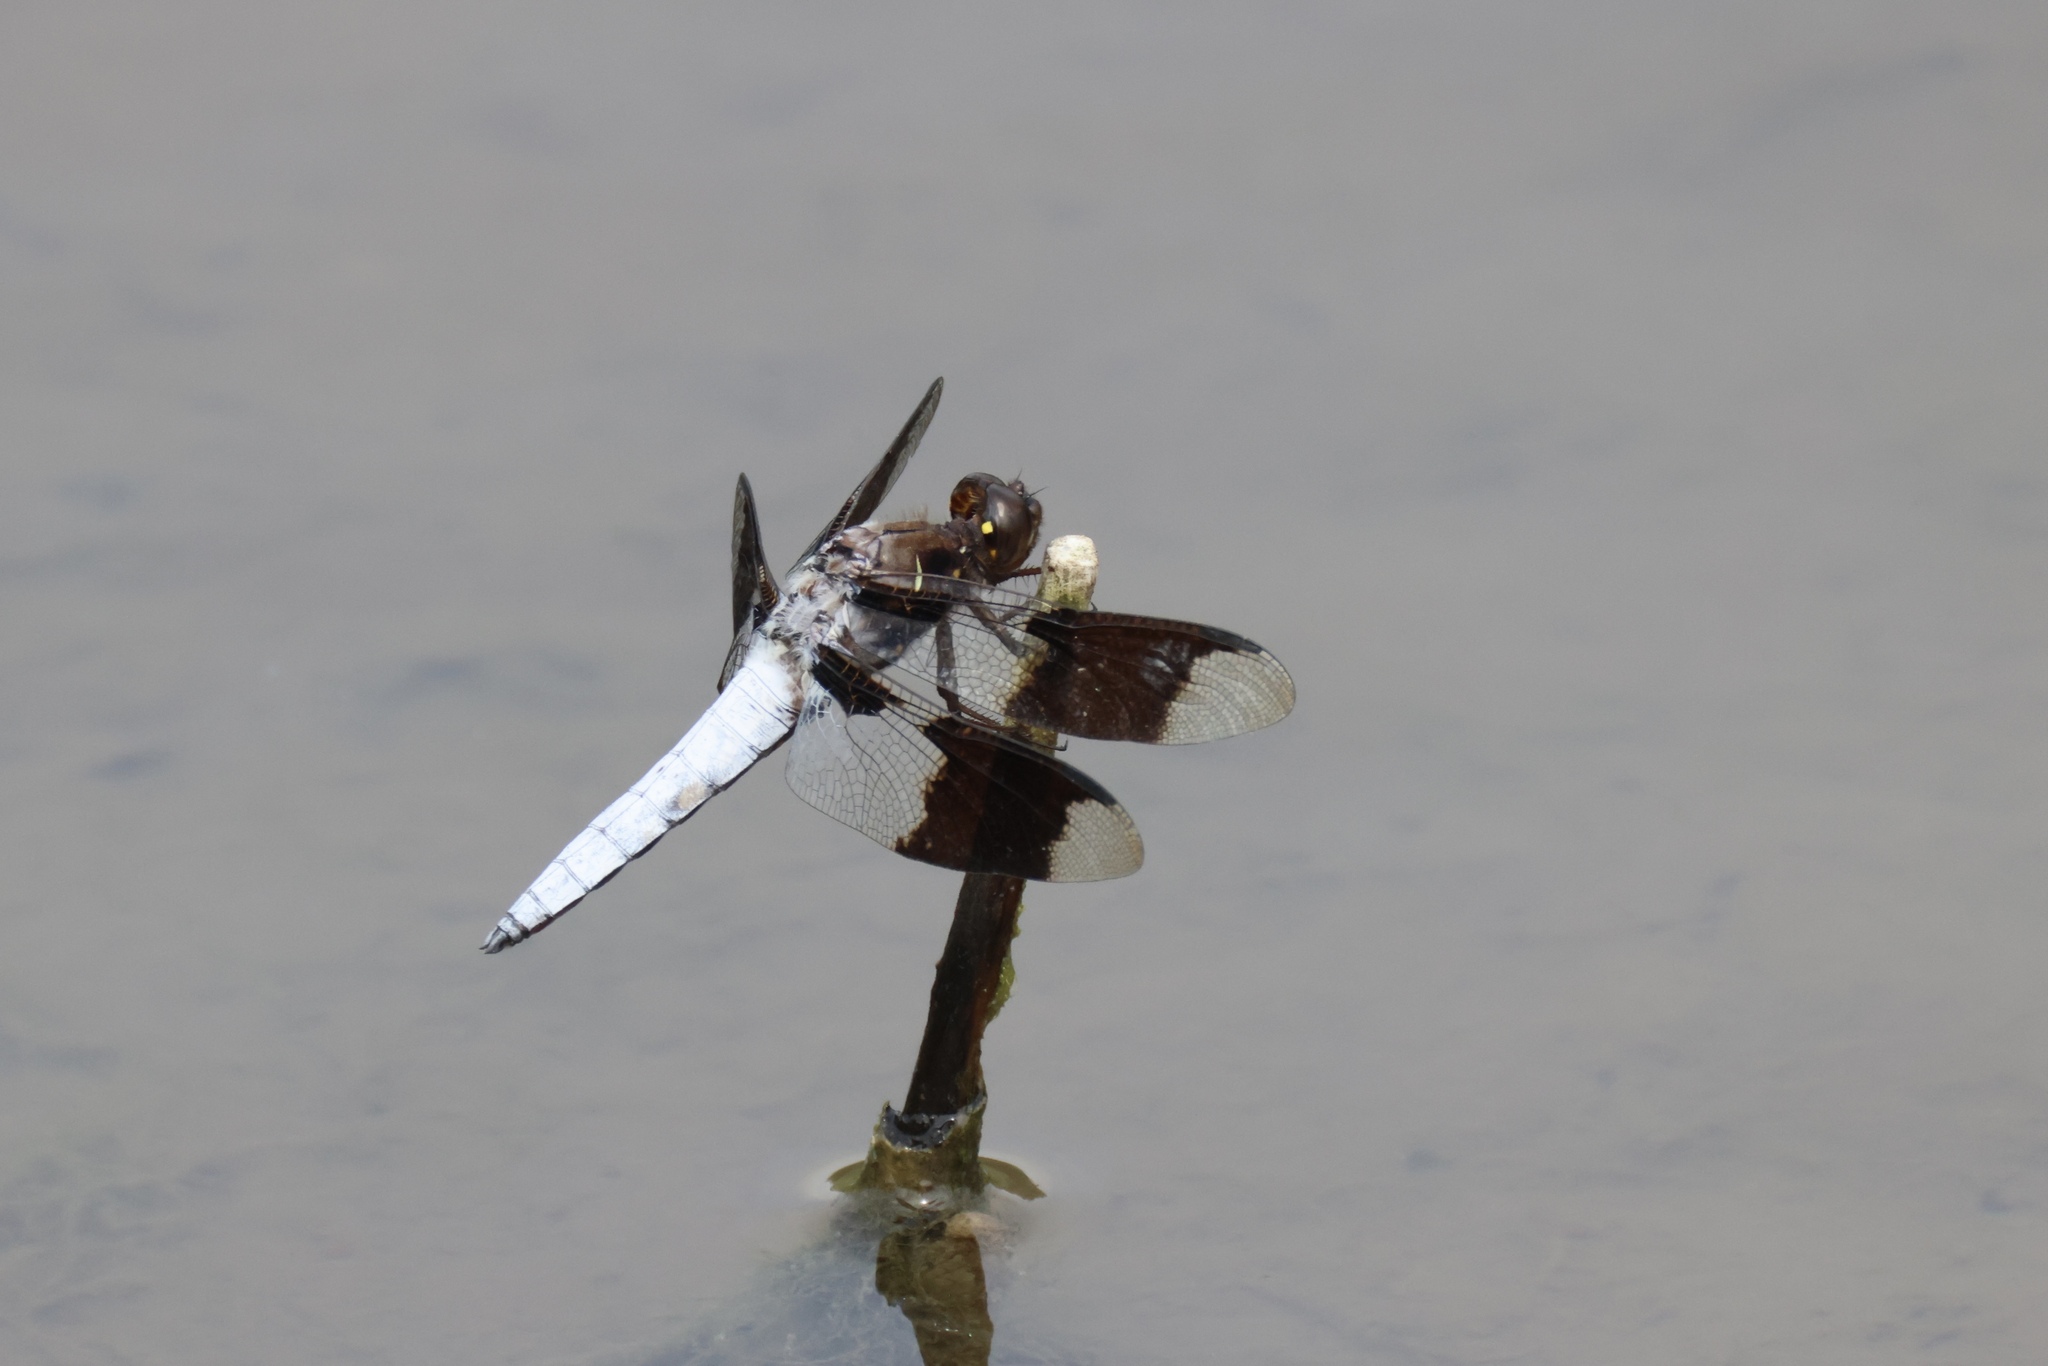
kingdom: Animalia
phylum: Arthropoda
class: Insecta
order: Odonata
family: Libellulidae
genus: Plathemis
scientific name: Plathemis lydia
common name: Common whitetail
